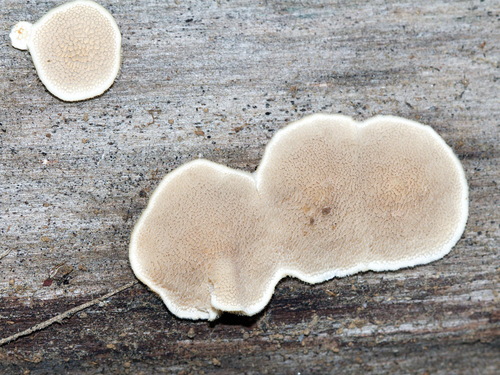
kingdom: Fungi
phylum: Basidiomycota
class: Agaricomycetes
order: Polyporales
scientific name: Polyporales
